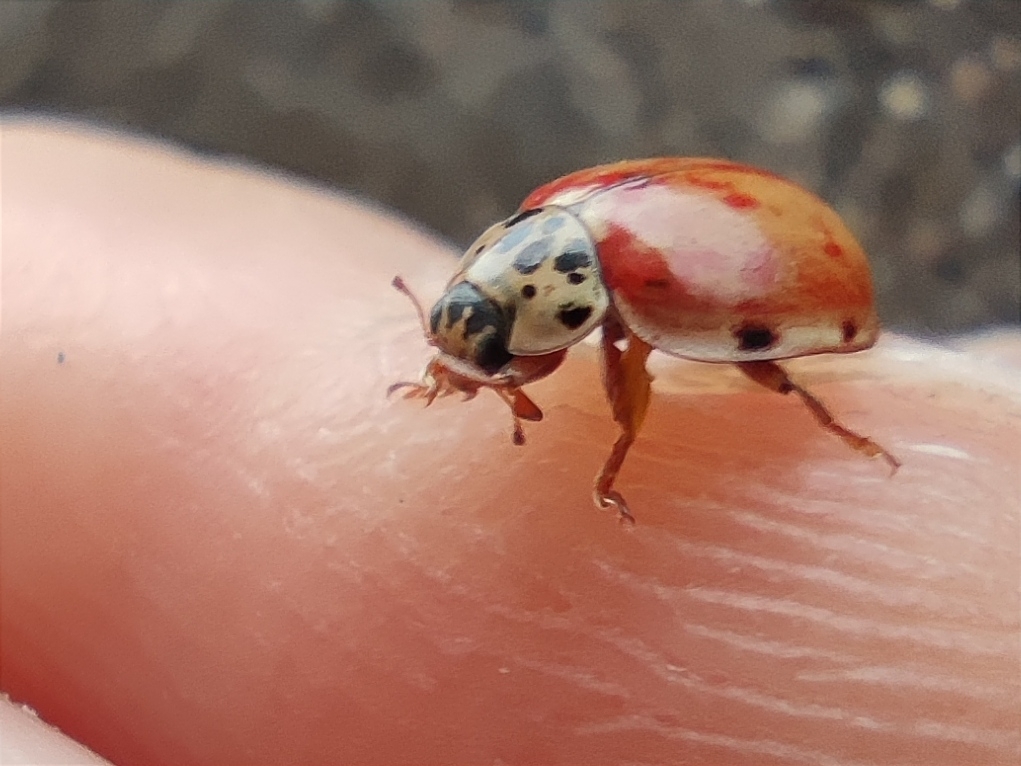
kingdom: Animalia
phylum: Arthropoda
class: Insecta
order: Coleoptera
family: Coccinellidae
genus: Harmonia
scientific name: Harmonia quadripunctata
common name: Cream-streaked ladybird
